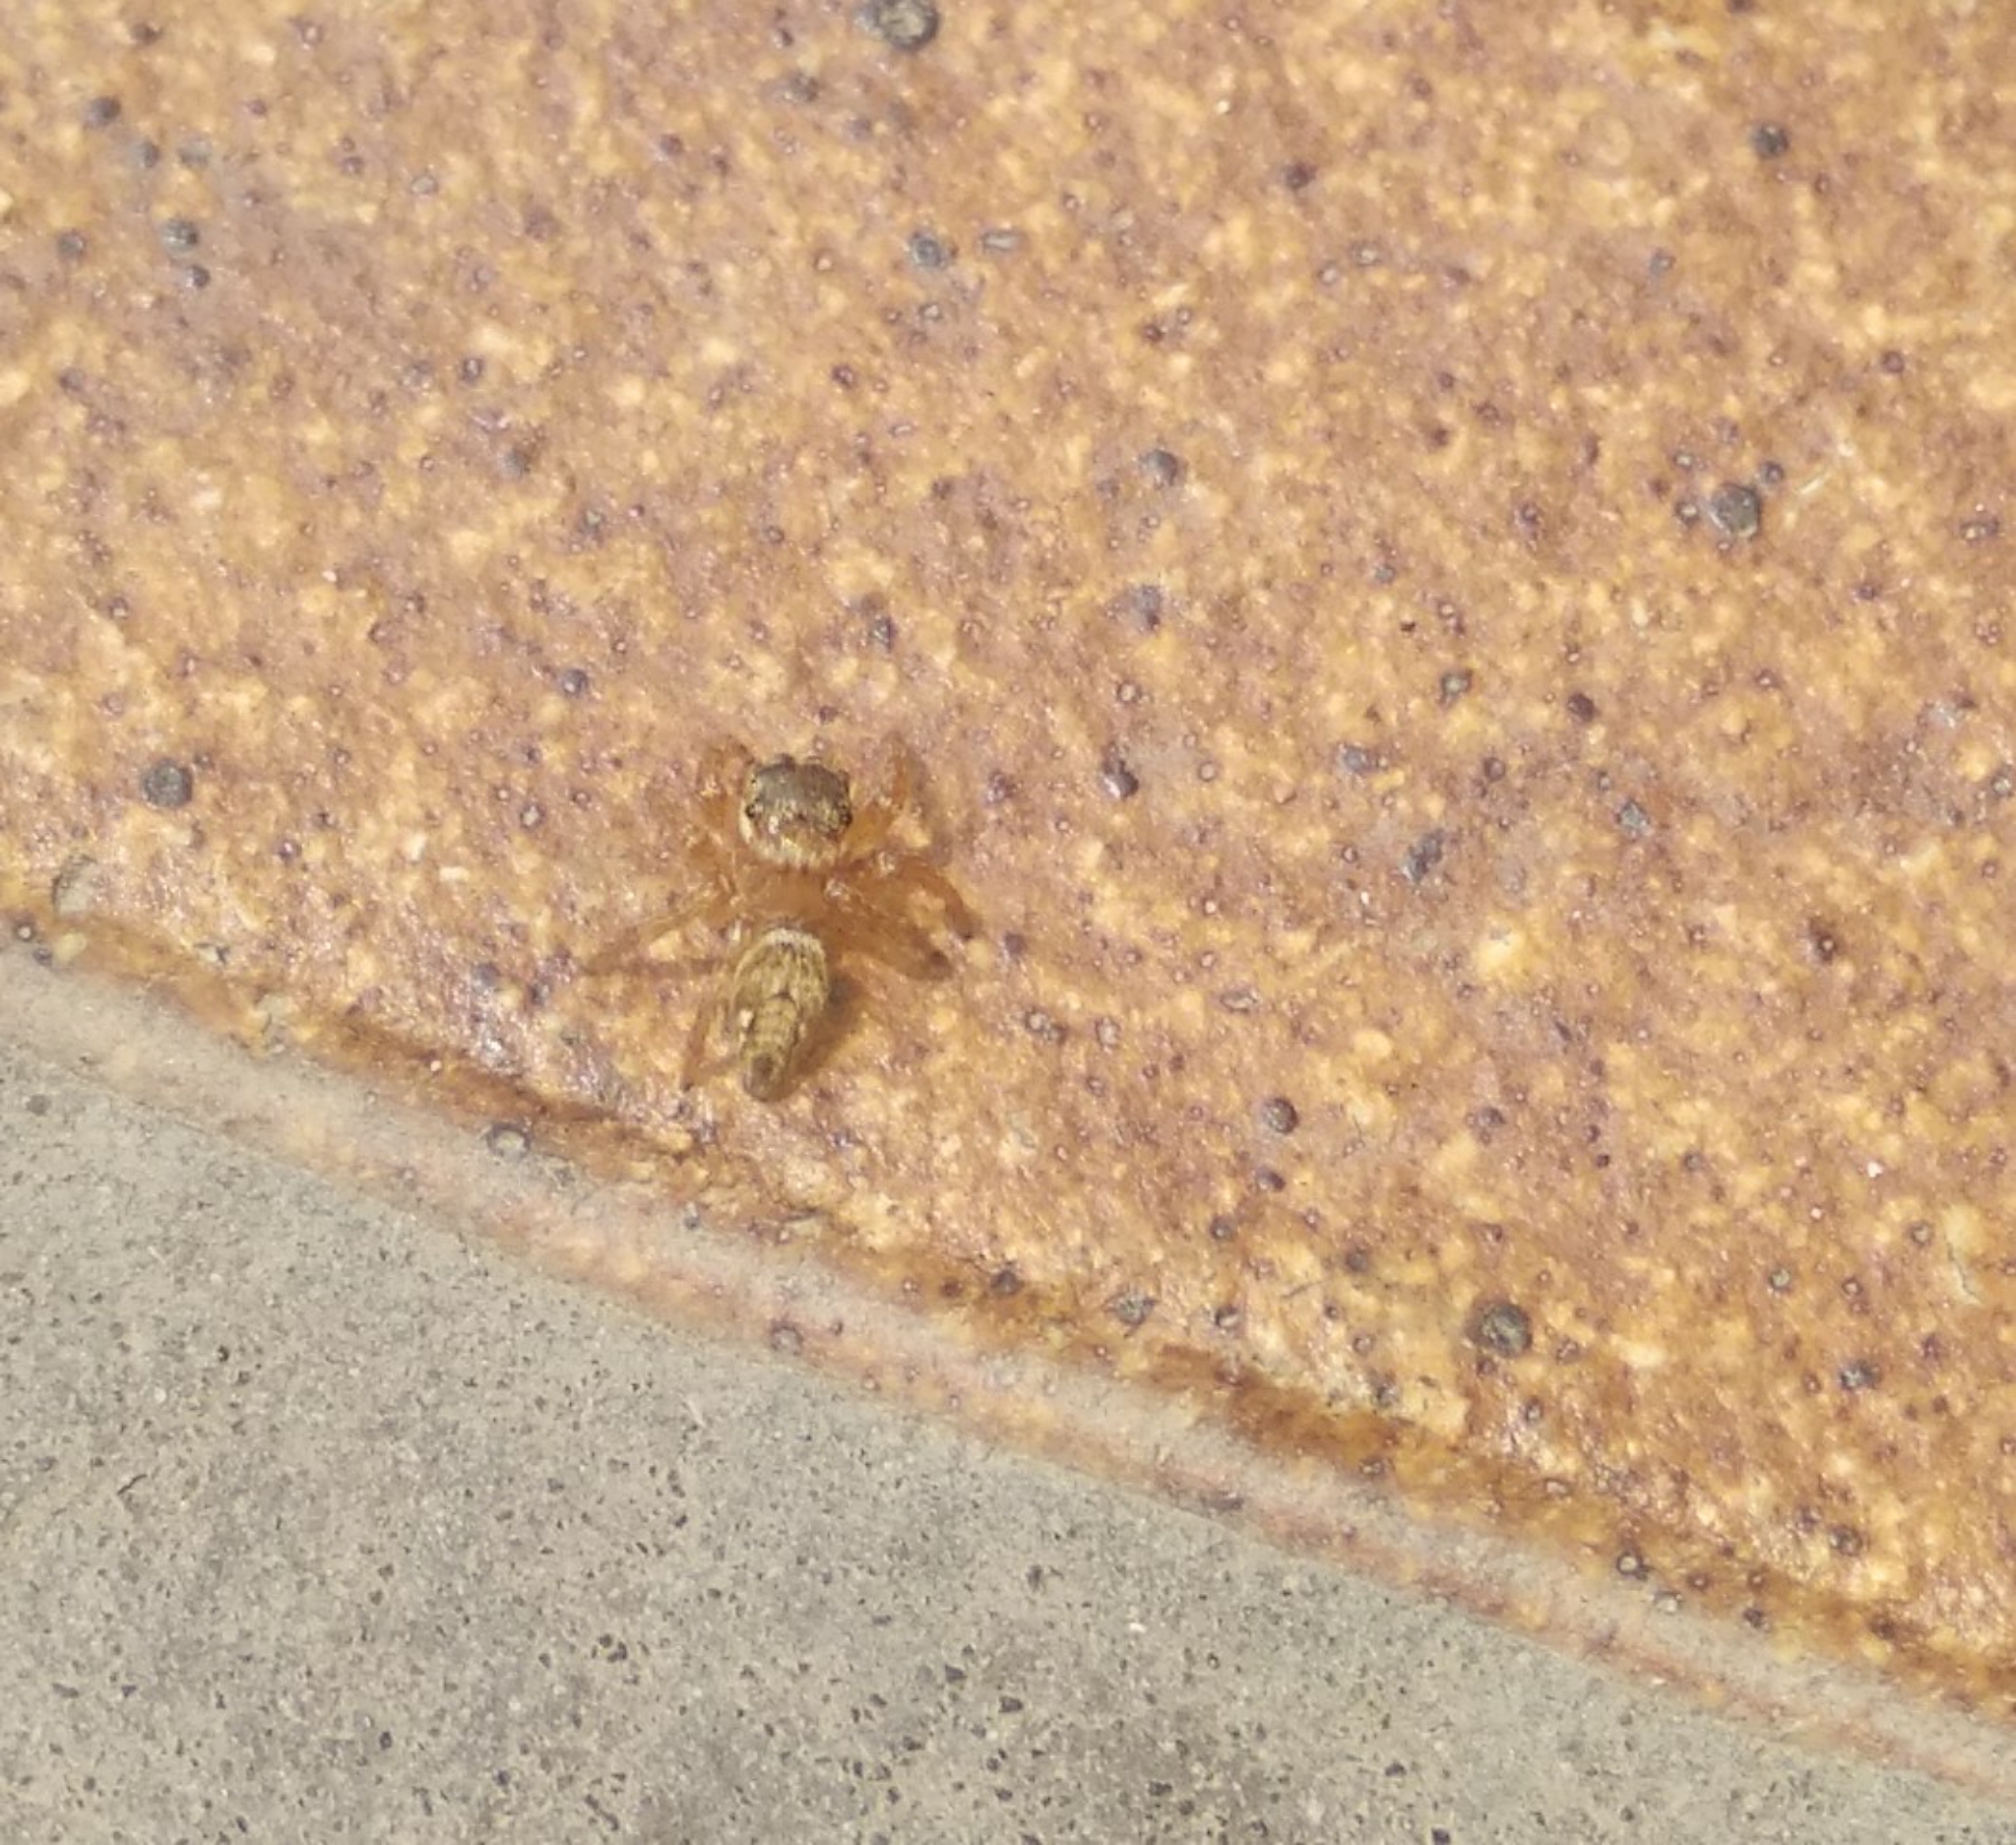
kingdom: Animalia
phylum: Arthropoda
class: Arachnida
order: Araneae
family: Salticidae
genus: Evarcha
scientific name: Evarcha jucunda
